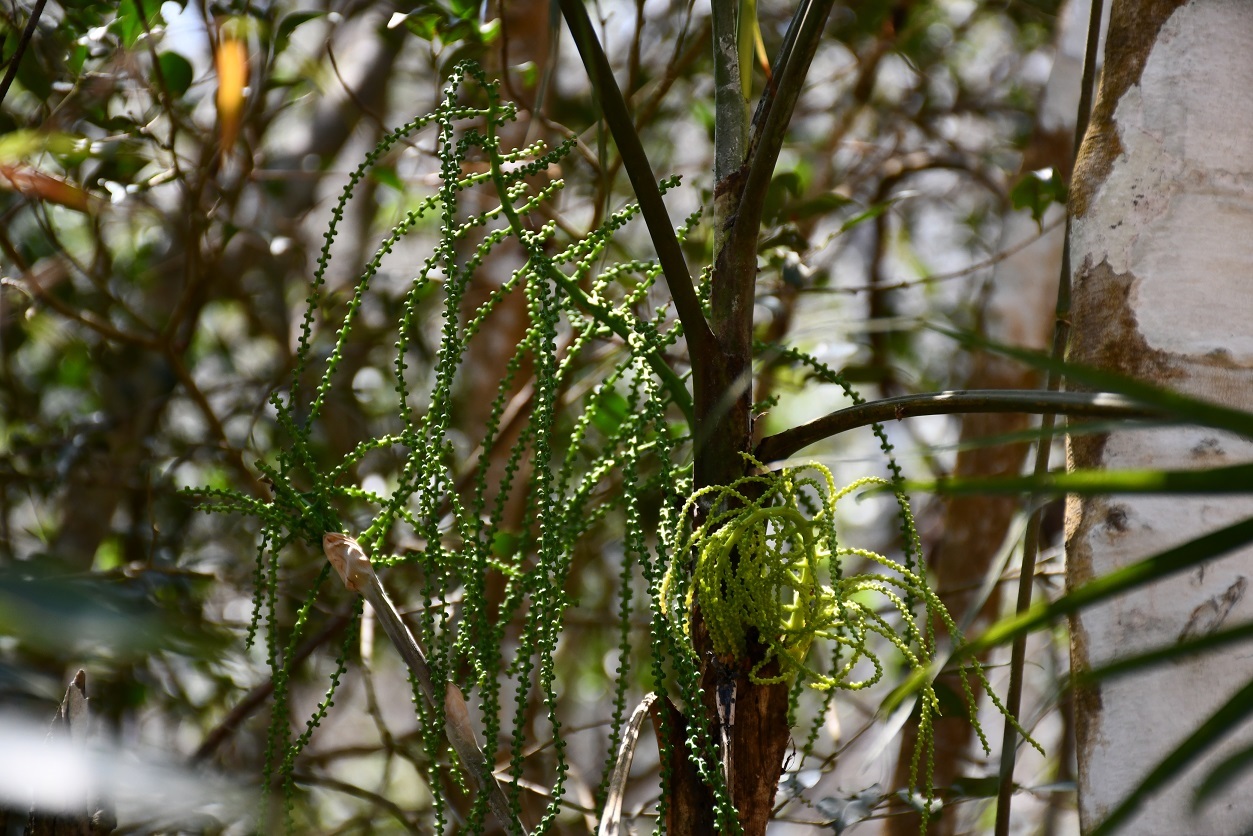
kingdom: Plantae
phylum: Tracheophyta
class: Liliopsida
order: Arecales
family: Arecaceae
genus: Chamaedorea
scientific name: Chamaedorea glaucifolia
